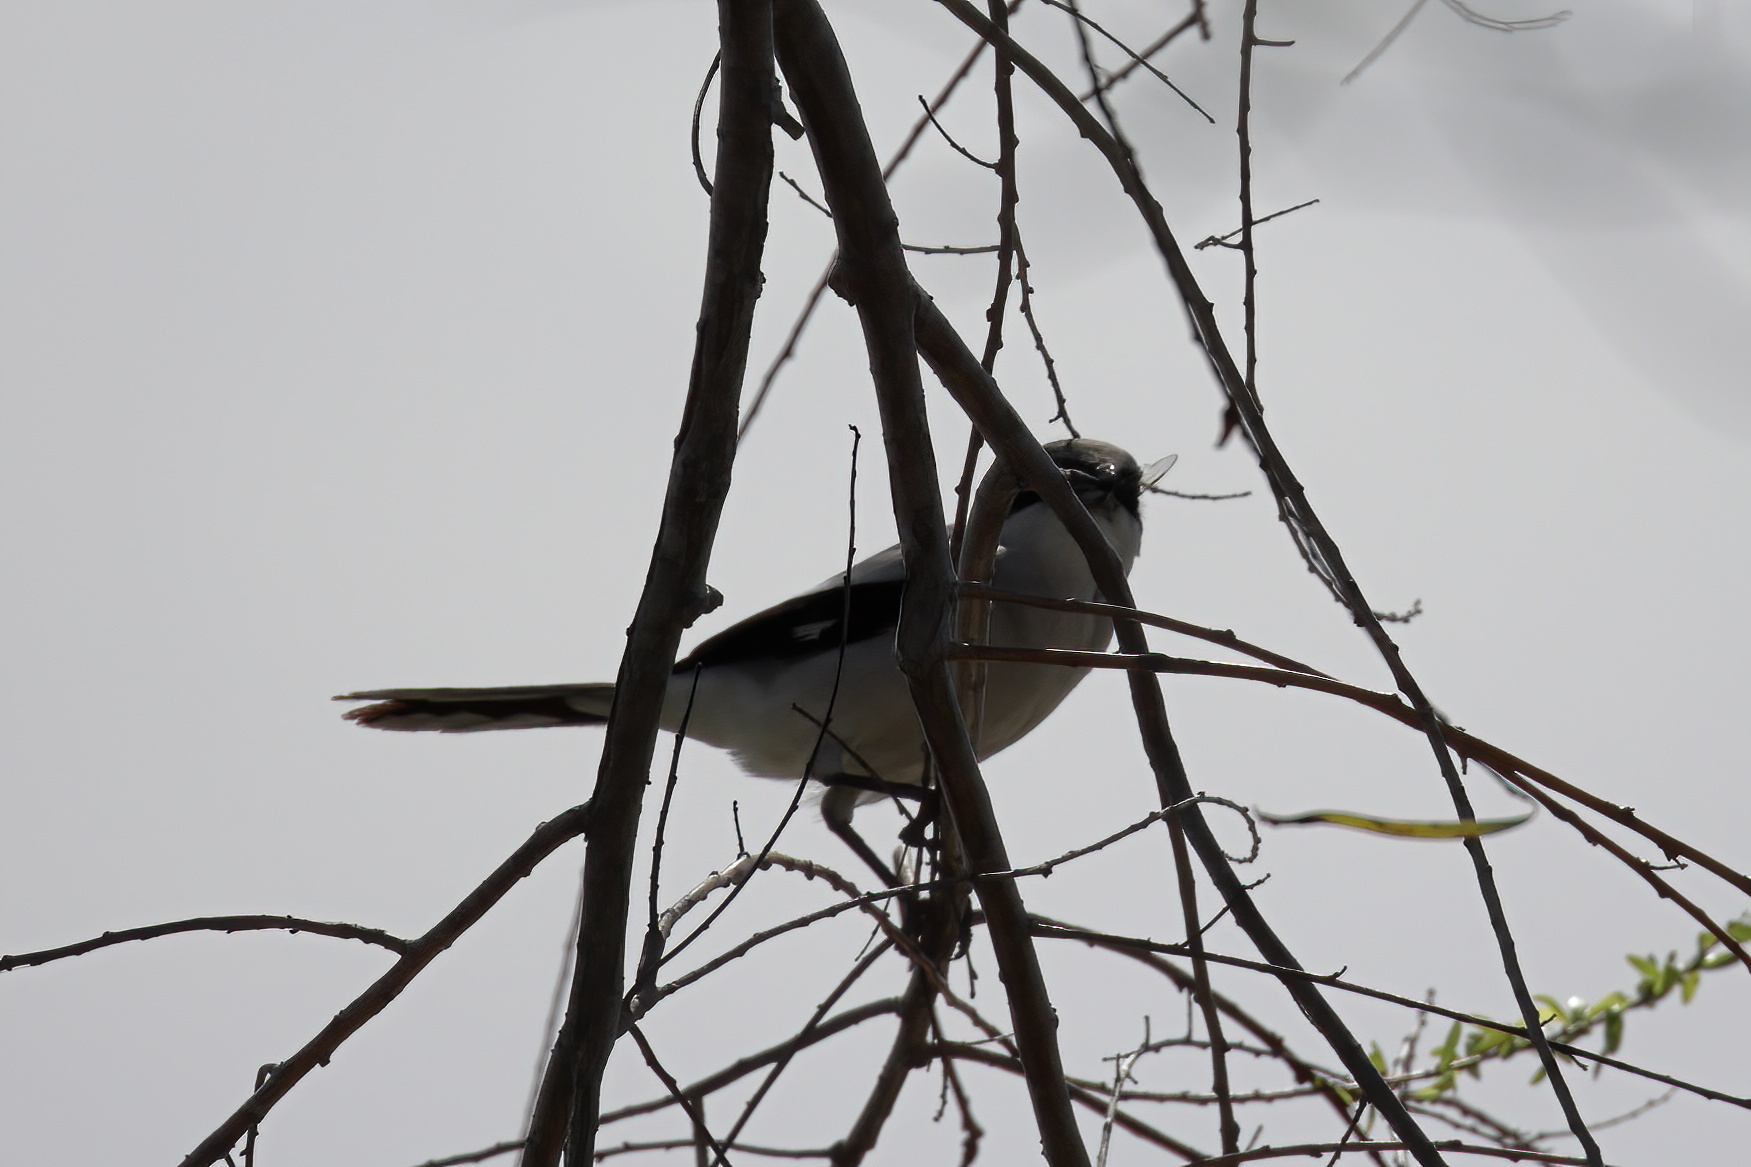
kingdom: Animalia
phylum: Chordata
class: Aves
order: Passeriformes
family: Laniidae
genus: Lanius
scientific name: Lanius ludovicianus
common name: Loggerhead shrike
